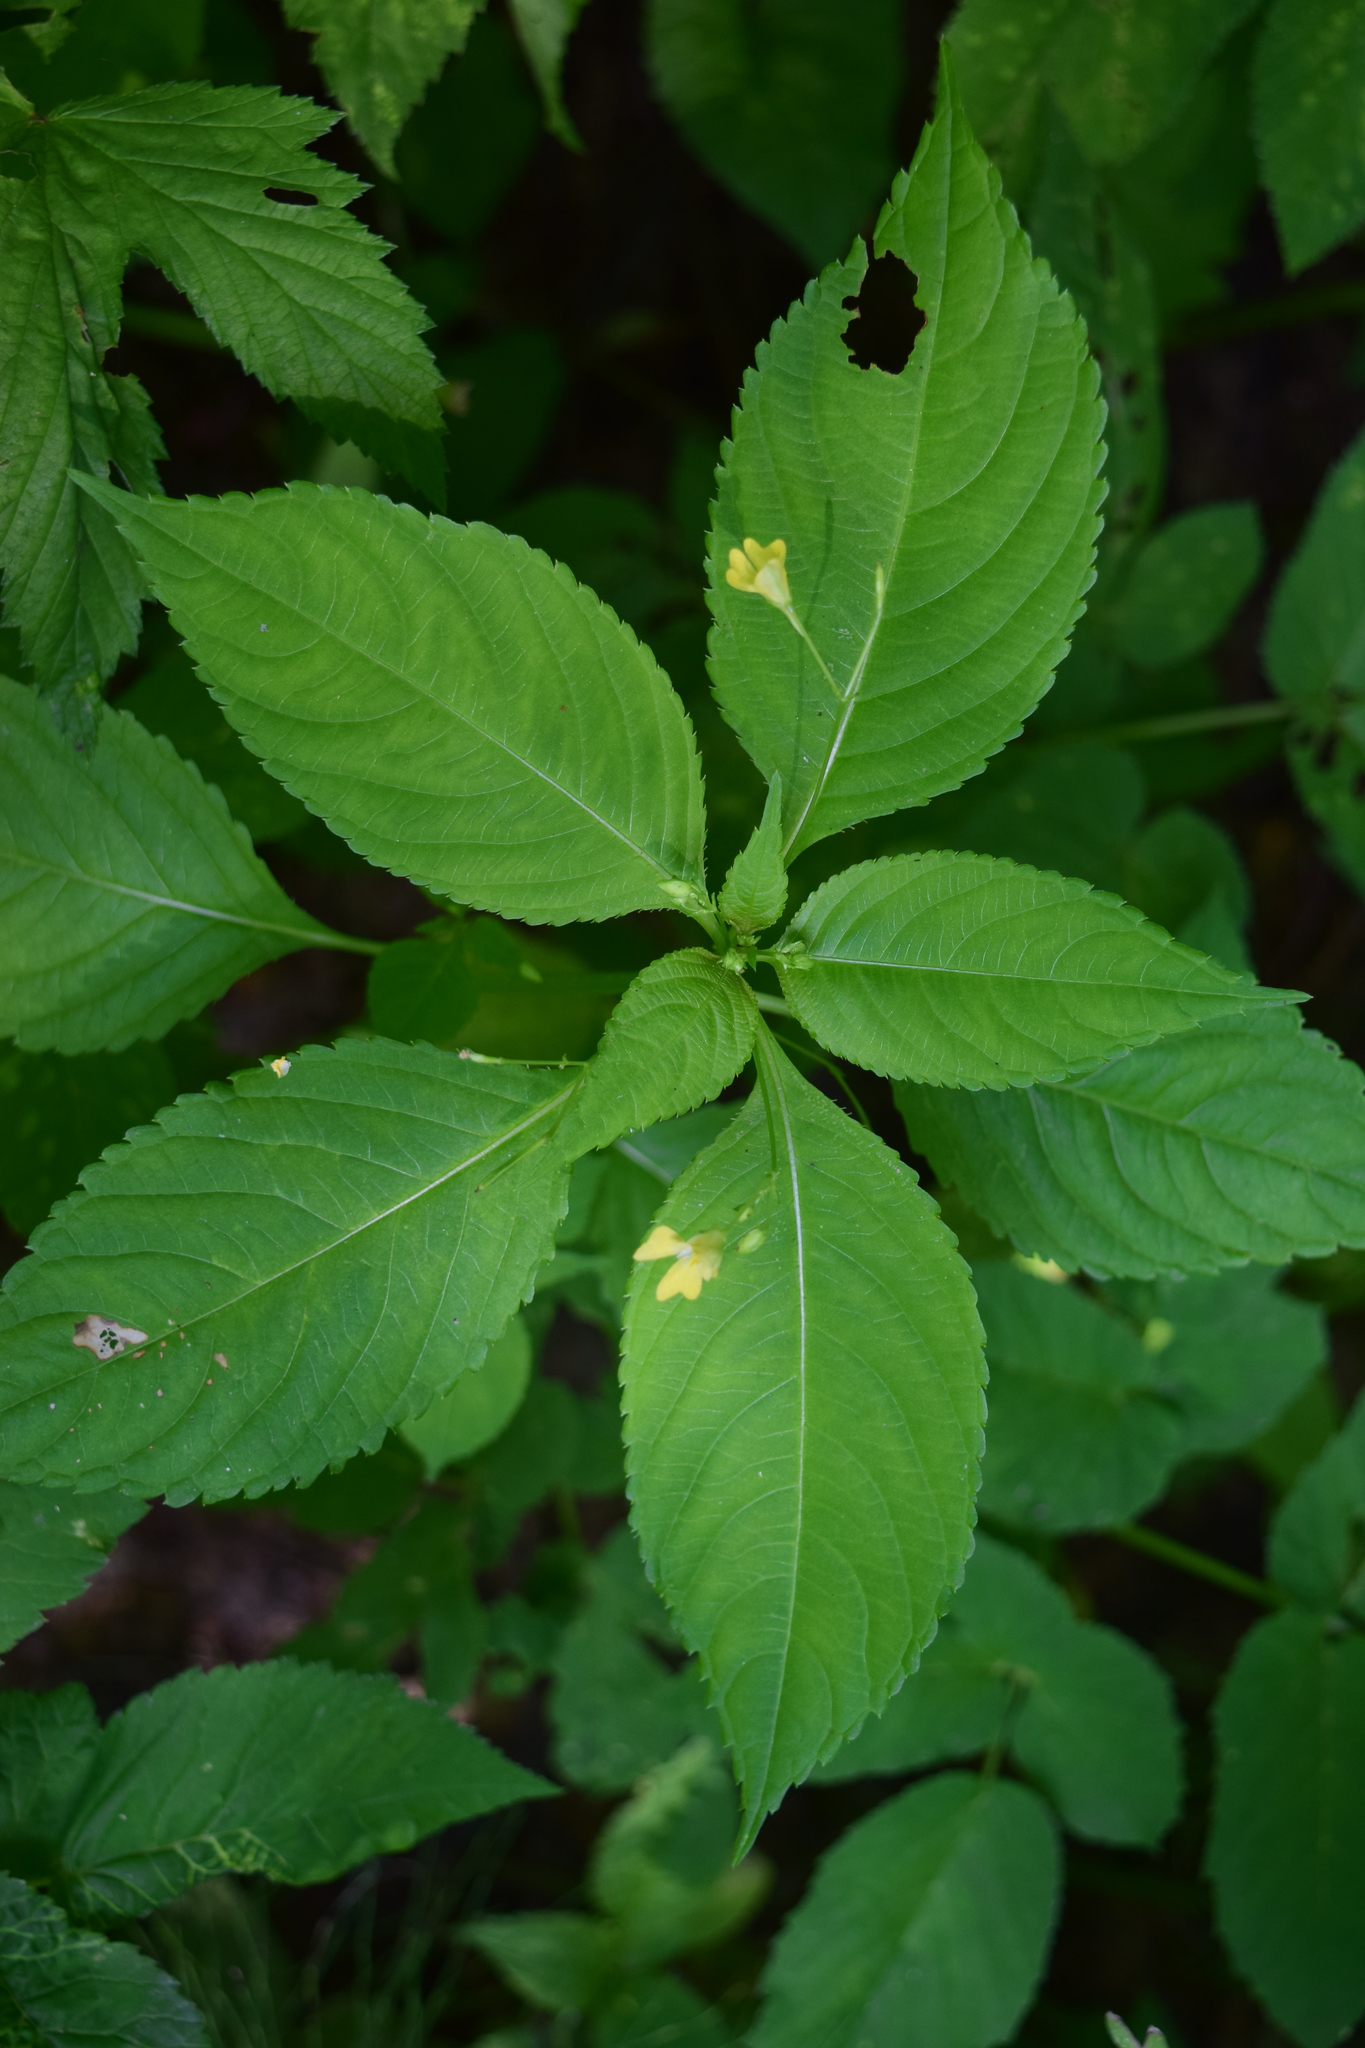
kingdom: Plantae
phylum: Tracheophyta
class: Magnoliopsida
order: Ericales
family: Balsaminaceae
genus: Impatiens
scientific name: Impatiens parviflora
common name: Small balsam
